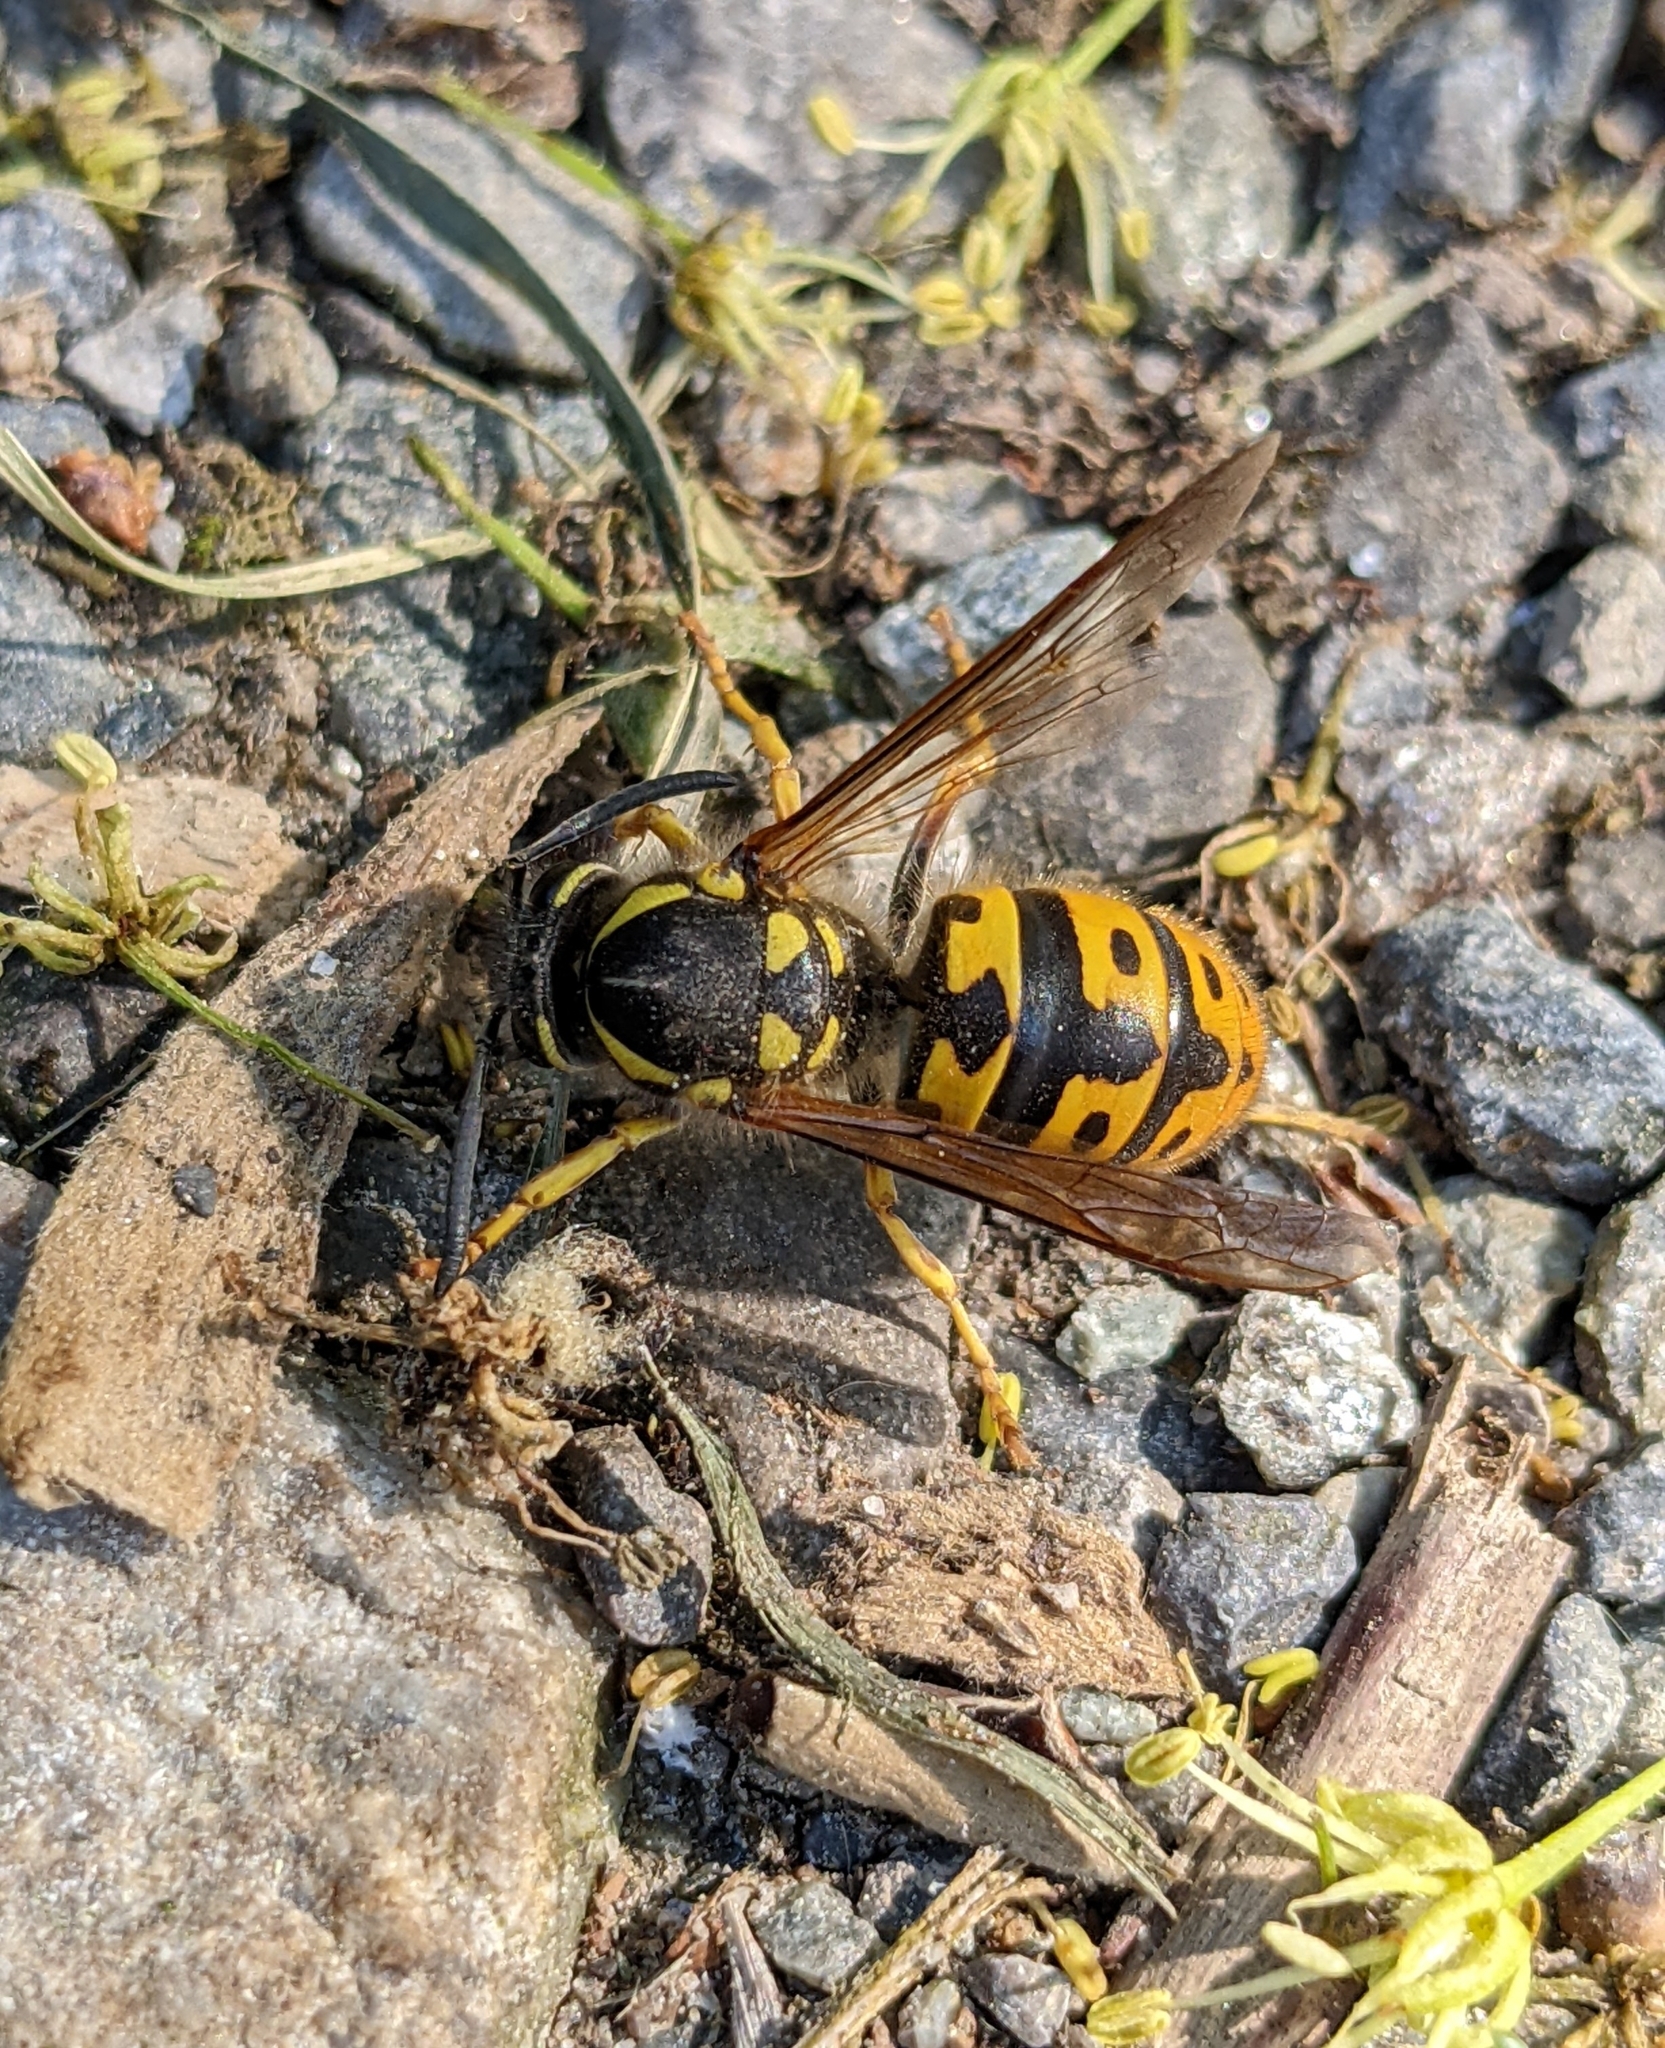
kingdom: Animalia
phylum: Arthropoda
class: Insecta
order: Hymenoptera
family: Vespidae
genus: Vespula
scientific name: Vespula germanica
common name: German wasp
